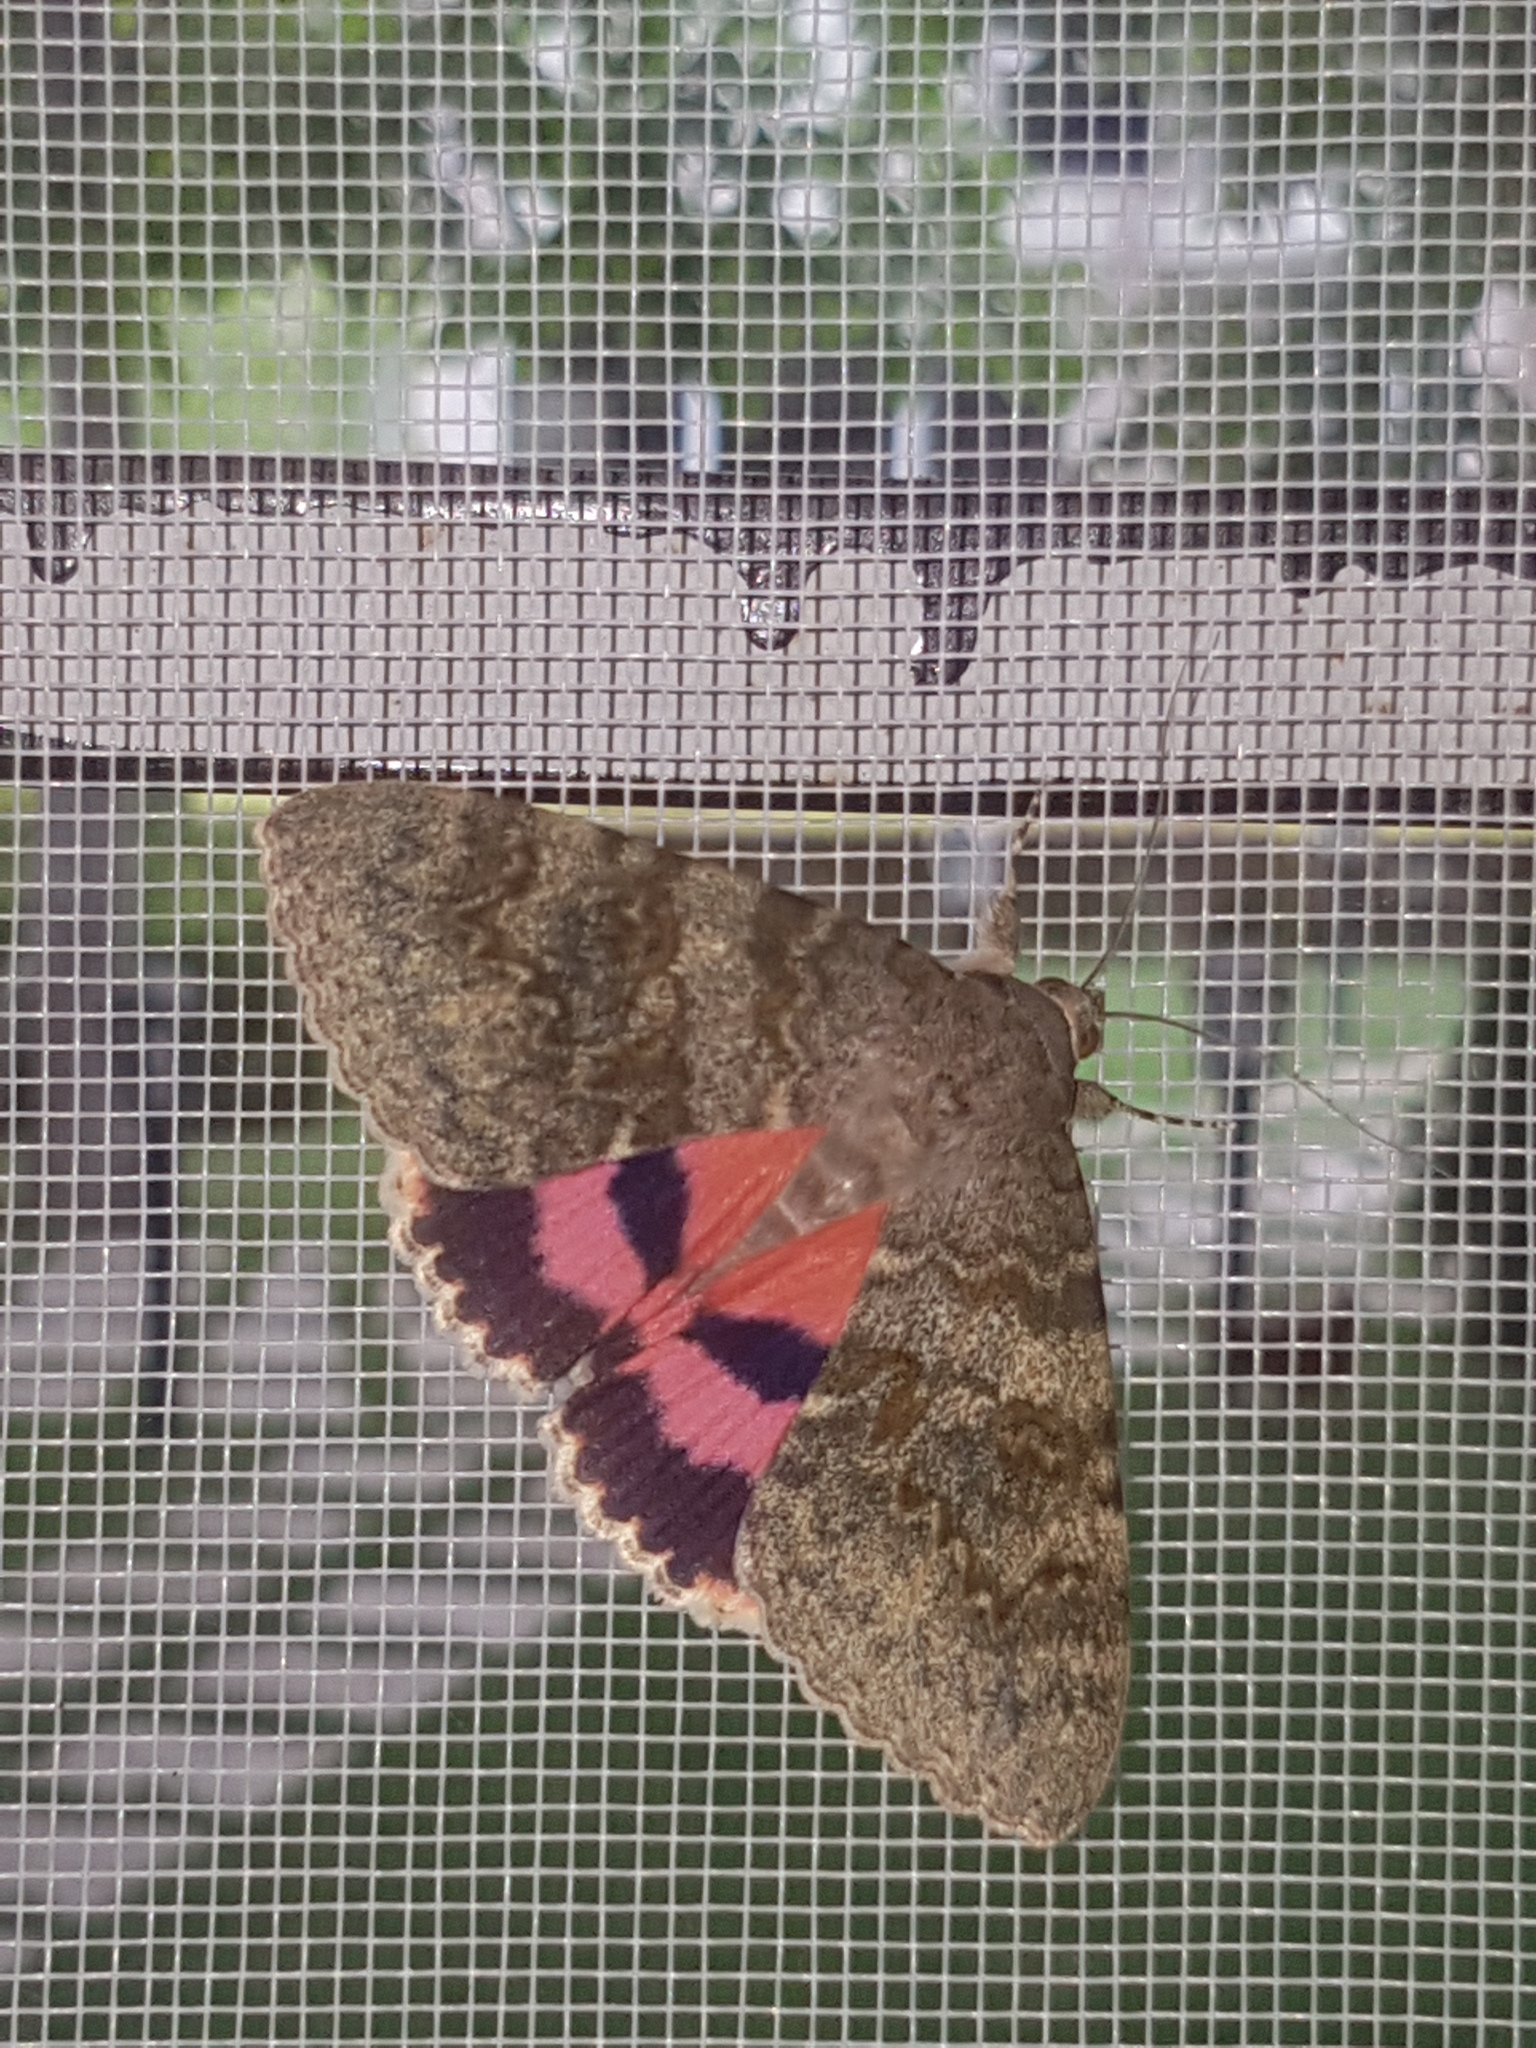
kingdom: Animalia
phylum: Arthropoda
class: Insecta
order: Lepidoptera
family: Erebidae
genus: Catocala
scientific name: Catocala deducta
